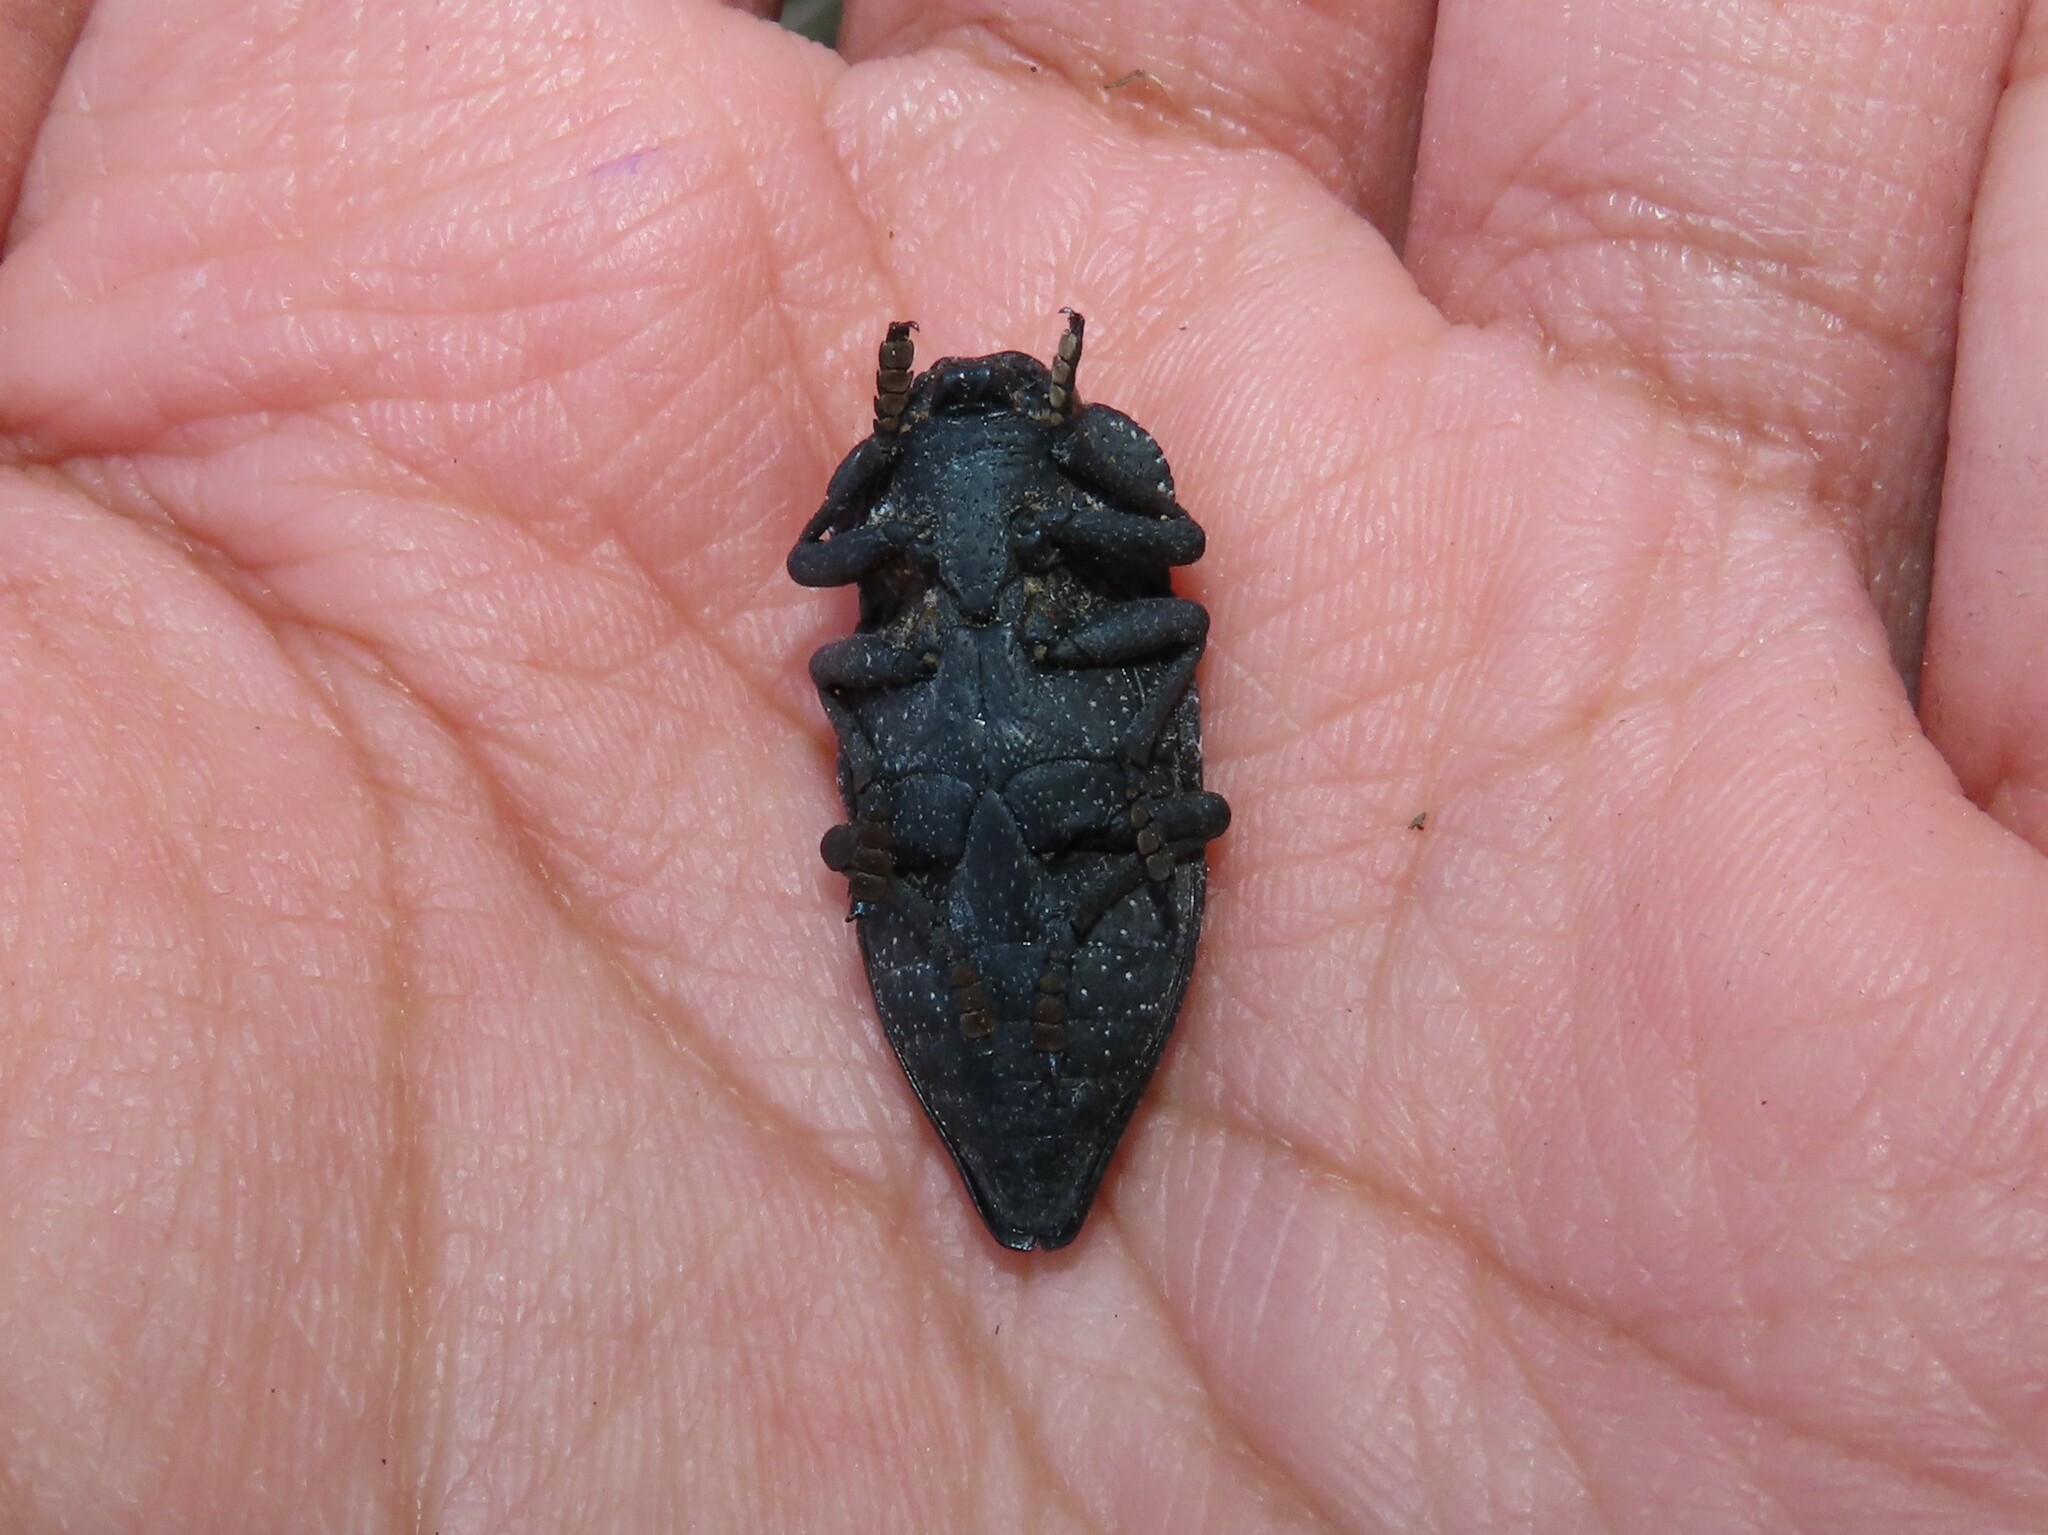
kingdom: Animalia
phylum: Arthropoda
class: Insecta
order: Coleoptera
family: Buprestidae
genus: Capnodis
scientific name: Capnodis tenebrionis
